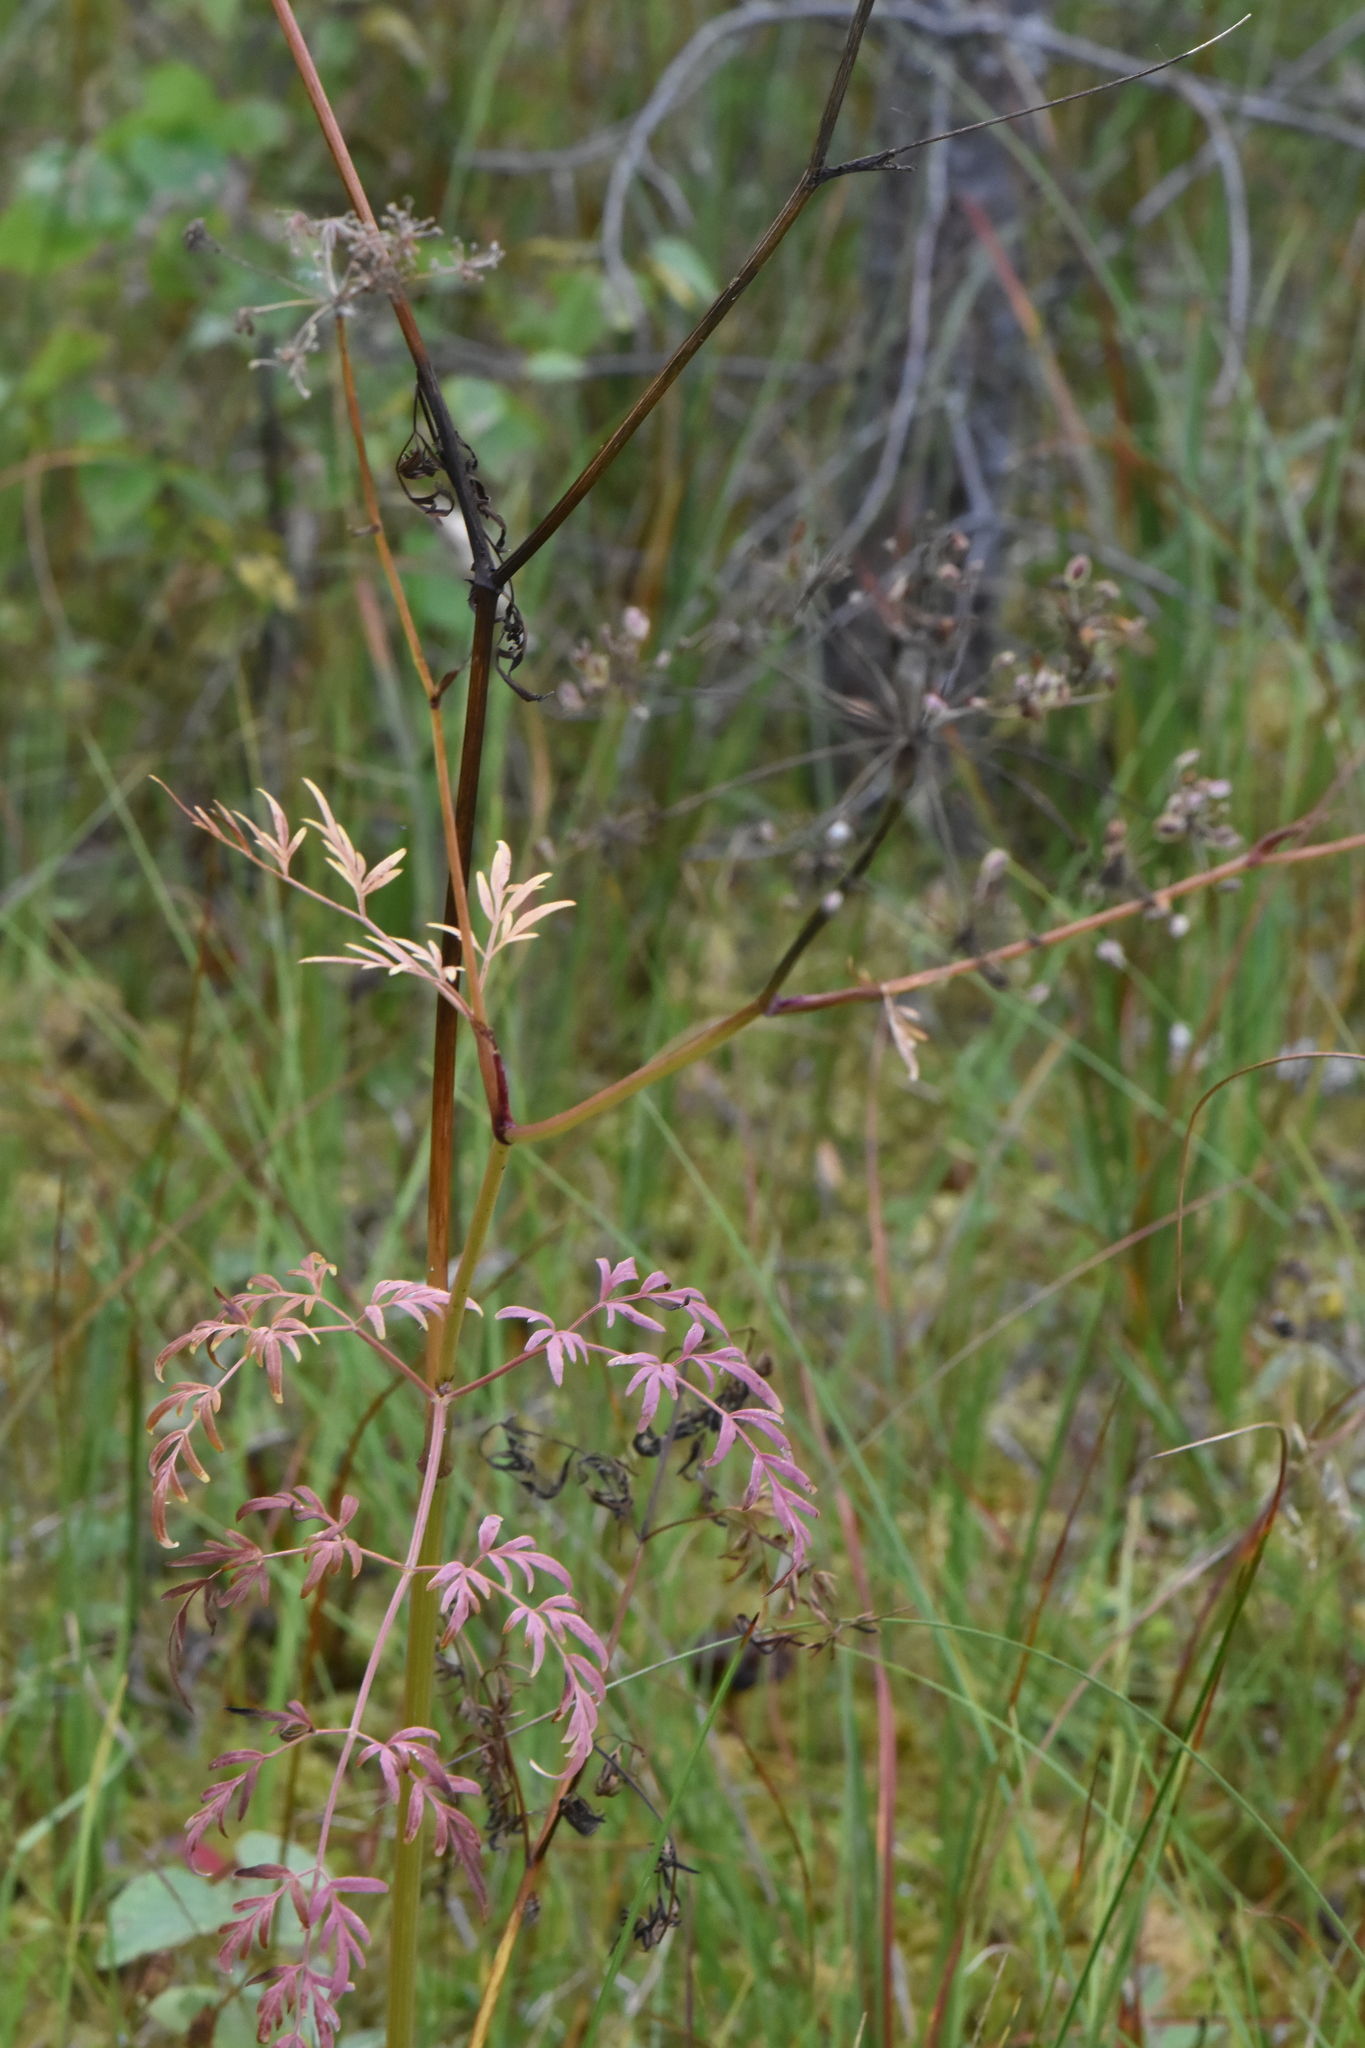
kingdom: Plantae
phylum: Tracheophyta
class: Magnoliopsida
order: Apiales
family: Apiaceae
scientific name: Apiaceae
